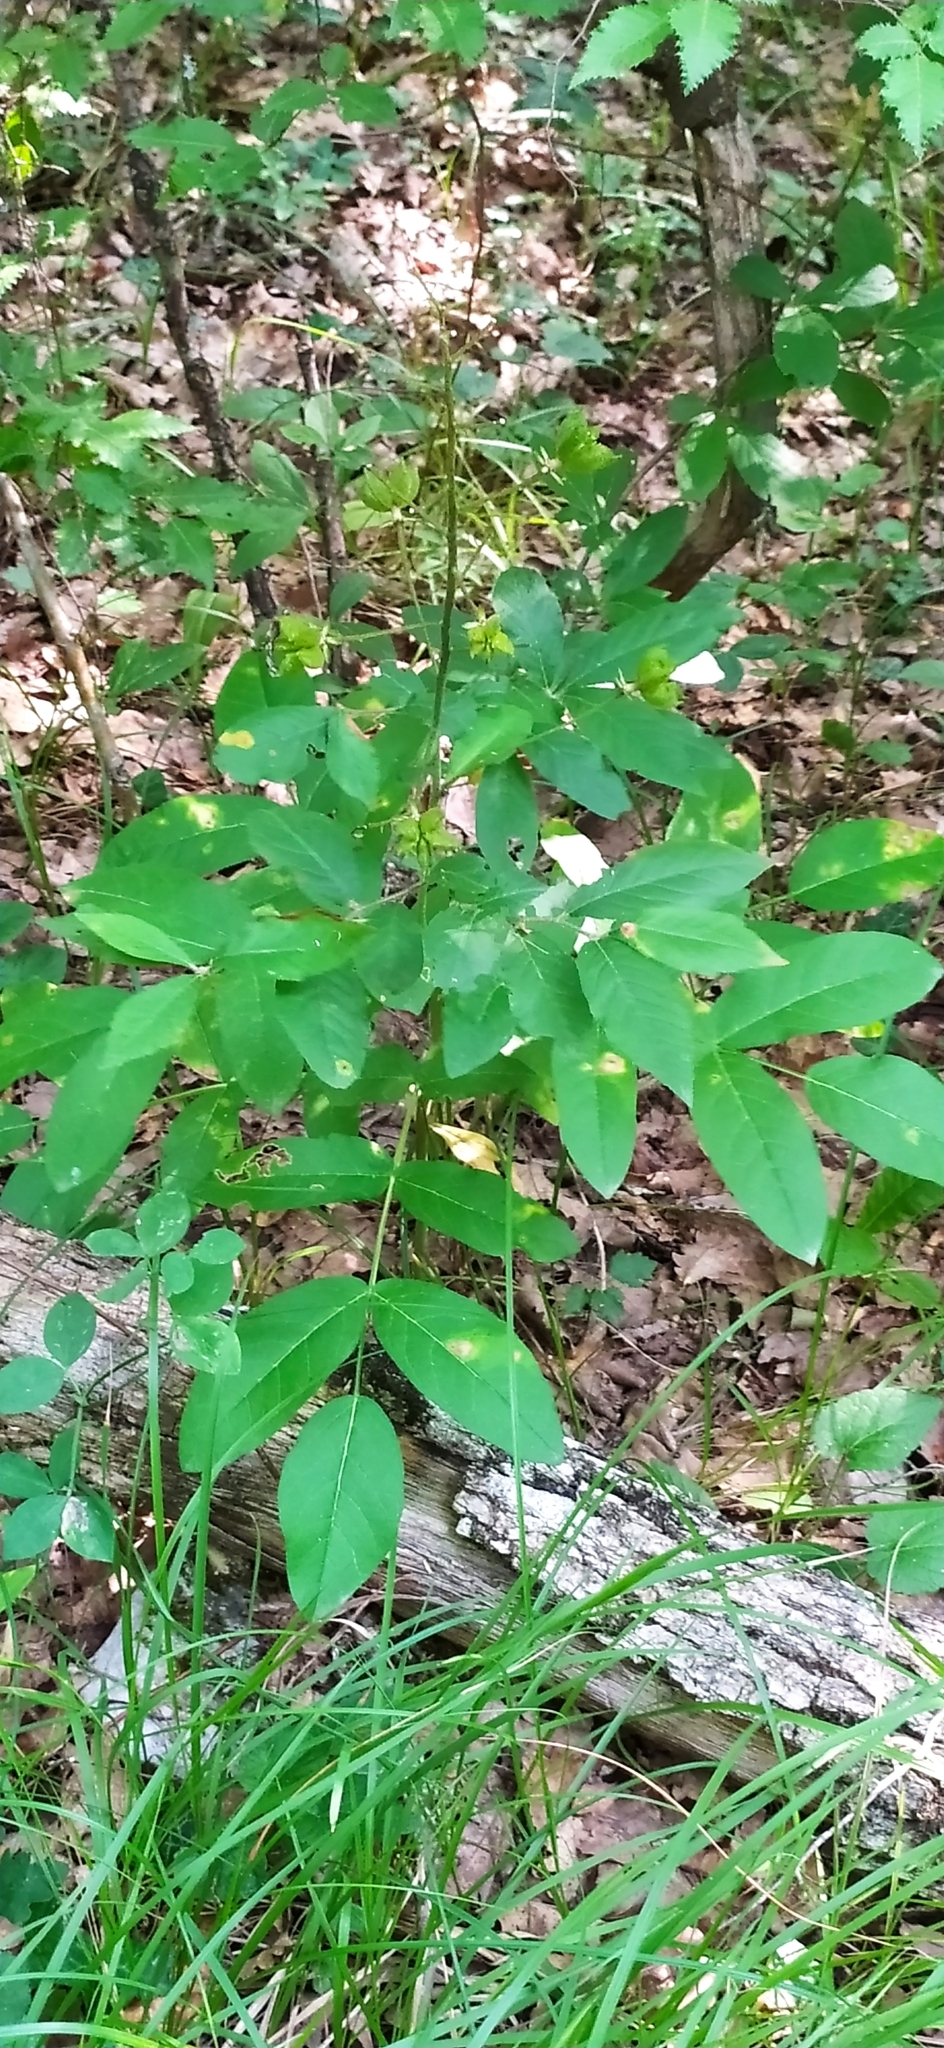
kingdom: Plantae
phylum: Tracheophyta
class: Magnoliopsida
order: Sapindales
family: Rutaceae
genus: Dictamnus
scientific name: Dictamnus albus
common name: Gasplant
